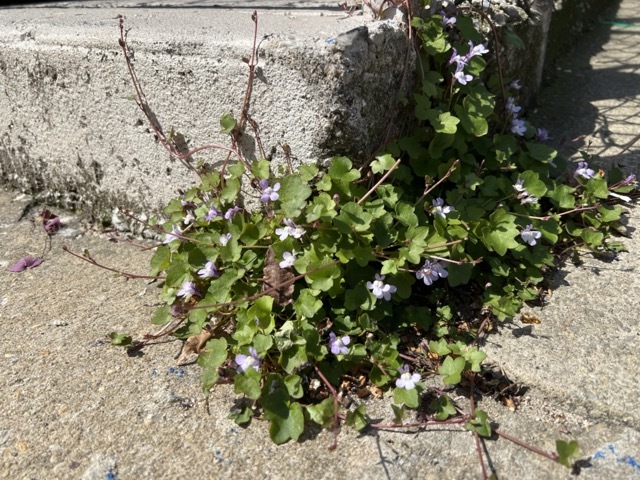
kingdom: Plantae
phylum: Tracheophyta
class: Magnoliopsida
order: Lamiales
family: Plantaginaceae
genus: Cymbalaria
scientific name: Cymbalaria muralis
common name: Ivy-leaved toadflax
